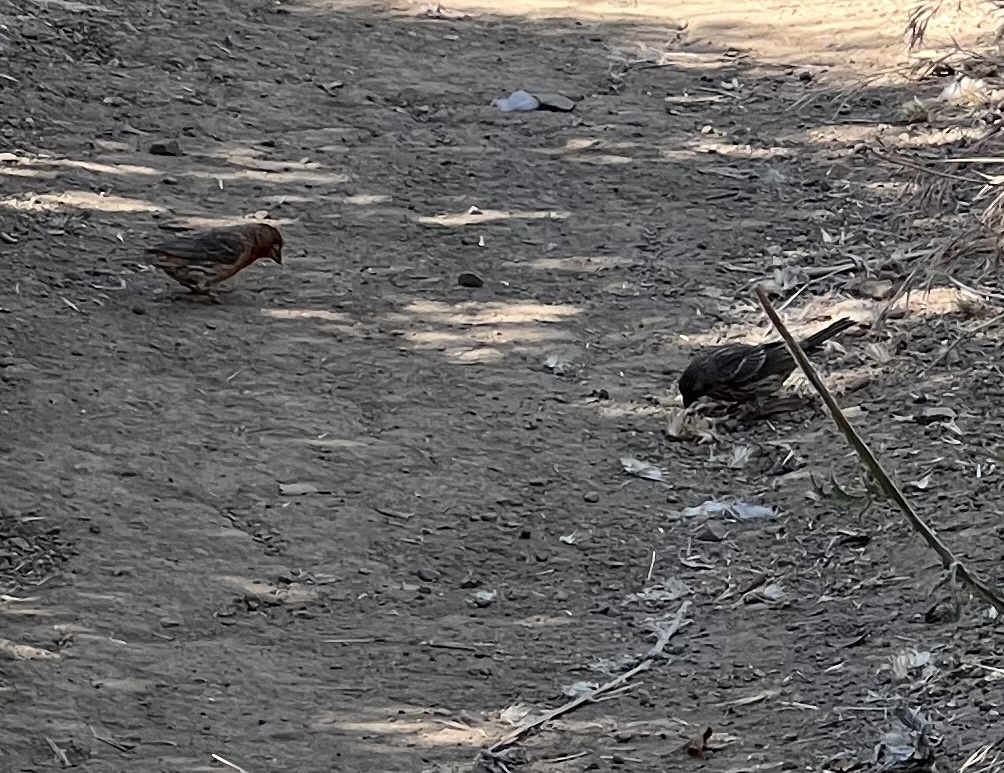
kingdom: Animalia
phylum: Chordata
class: Aves
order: Passeriformes
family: Fringillidae
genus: Haemorhous
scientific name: Haemorhous mexicanus
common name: House finch
